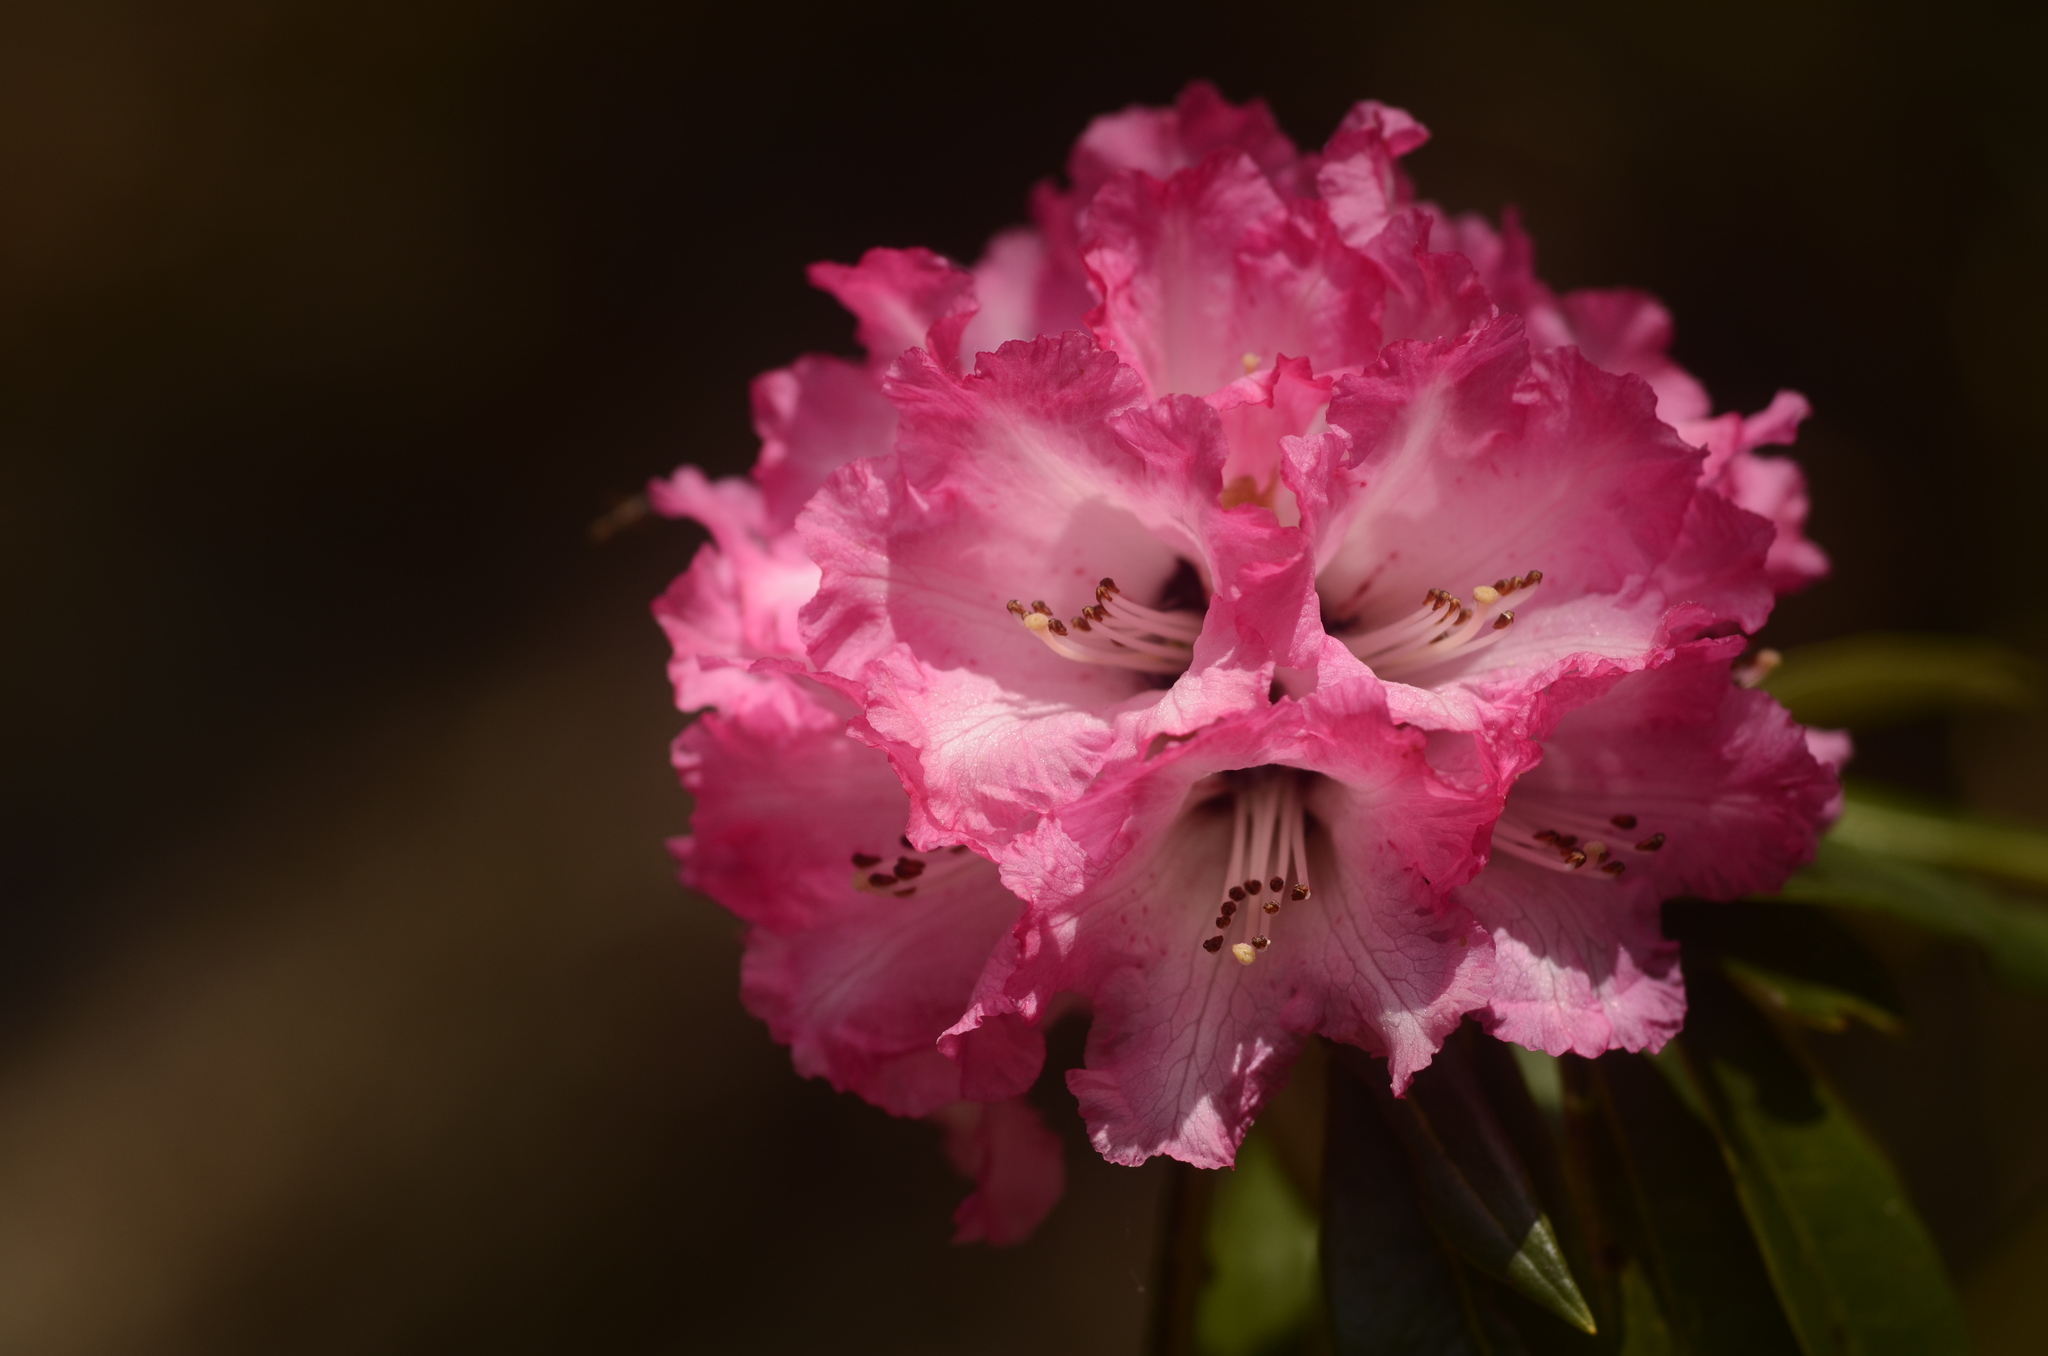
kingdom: Plantae
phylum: Tracheophyta
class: Magnoliopsida
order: Ericales
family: Ericaceae
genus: Rhododendron
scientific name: Rhododendron arboreum
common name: Tree rhododendron
